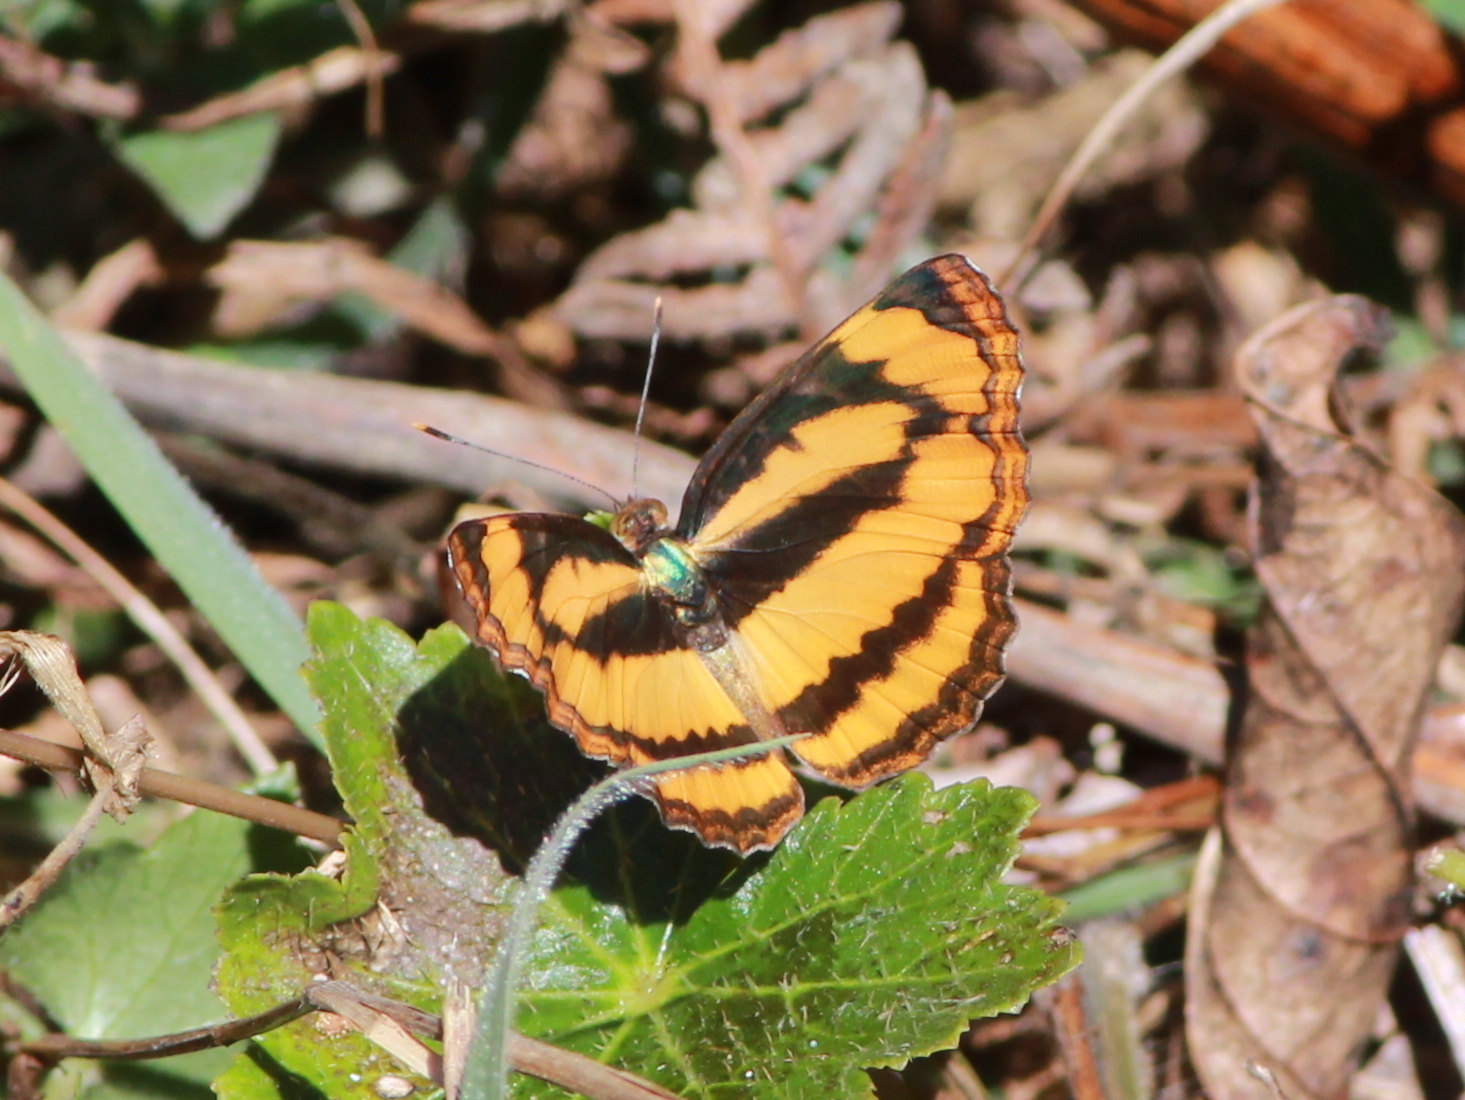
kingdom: Animalia
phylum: Arthropoda
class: Insecta
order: Lepidoptera
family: Nymphalidae
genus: Pantoporia
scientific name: Pantoporia hordonia
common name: Common lascar
